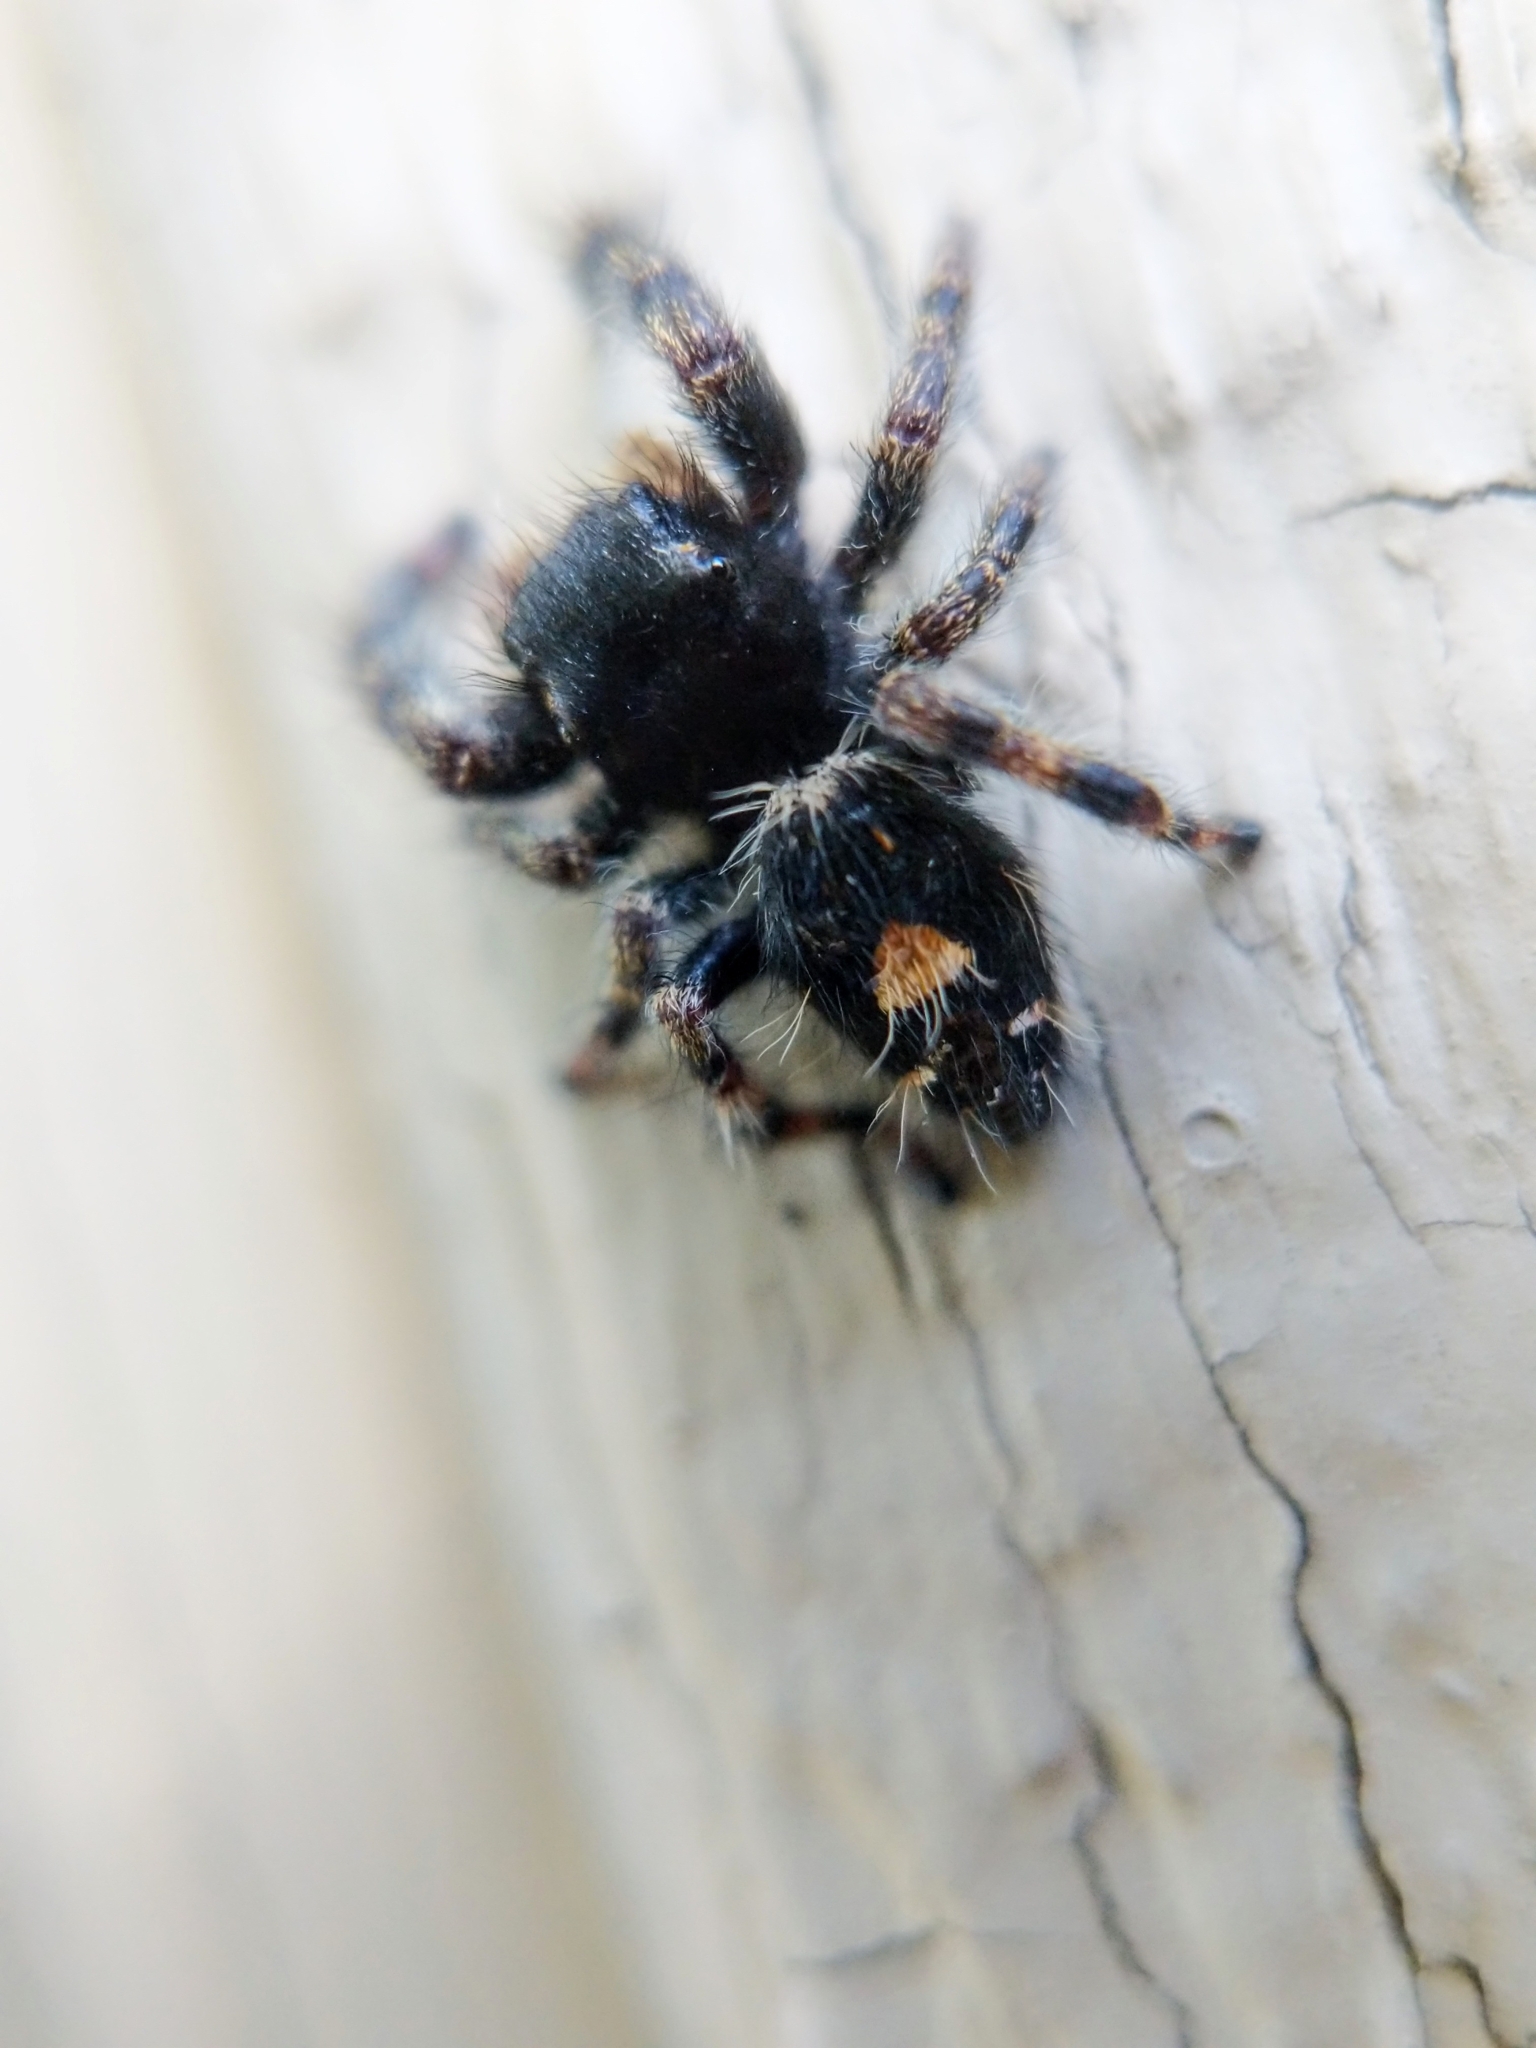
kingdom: Animalia
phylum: Arthropoda
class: Arachnida
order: Araneae
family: Salticidae
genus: Phidippus
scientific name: Phidippus audax
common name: Bold jumper
